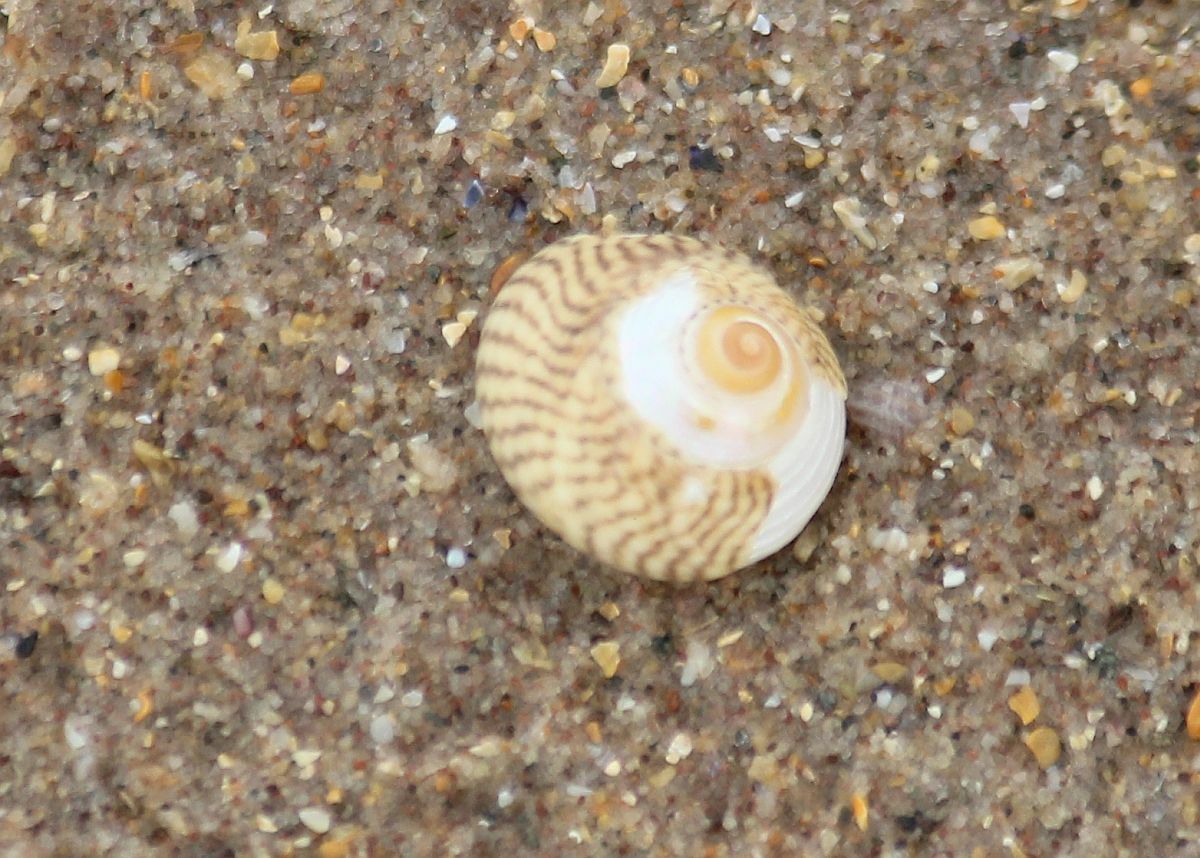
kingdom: Animalia
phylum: Mollusca
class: Gastropoda
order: Trochida
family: Trochidae
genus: Steromphala
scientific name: Steromphala cineraria
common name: Grey top shell
